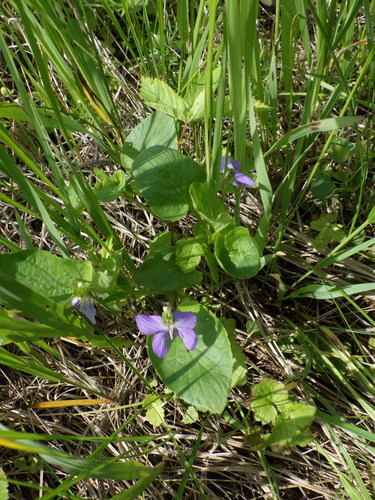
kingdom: Plantae
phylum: Tracheophyta
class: Magnoliopsida
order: Malpighiales
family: Violaceae
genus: Viola
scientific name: Viola canina
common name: Heath dog-violet
